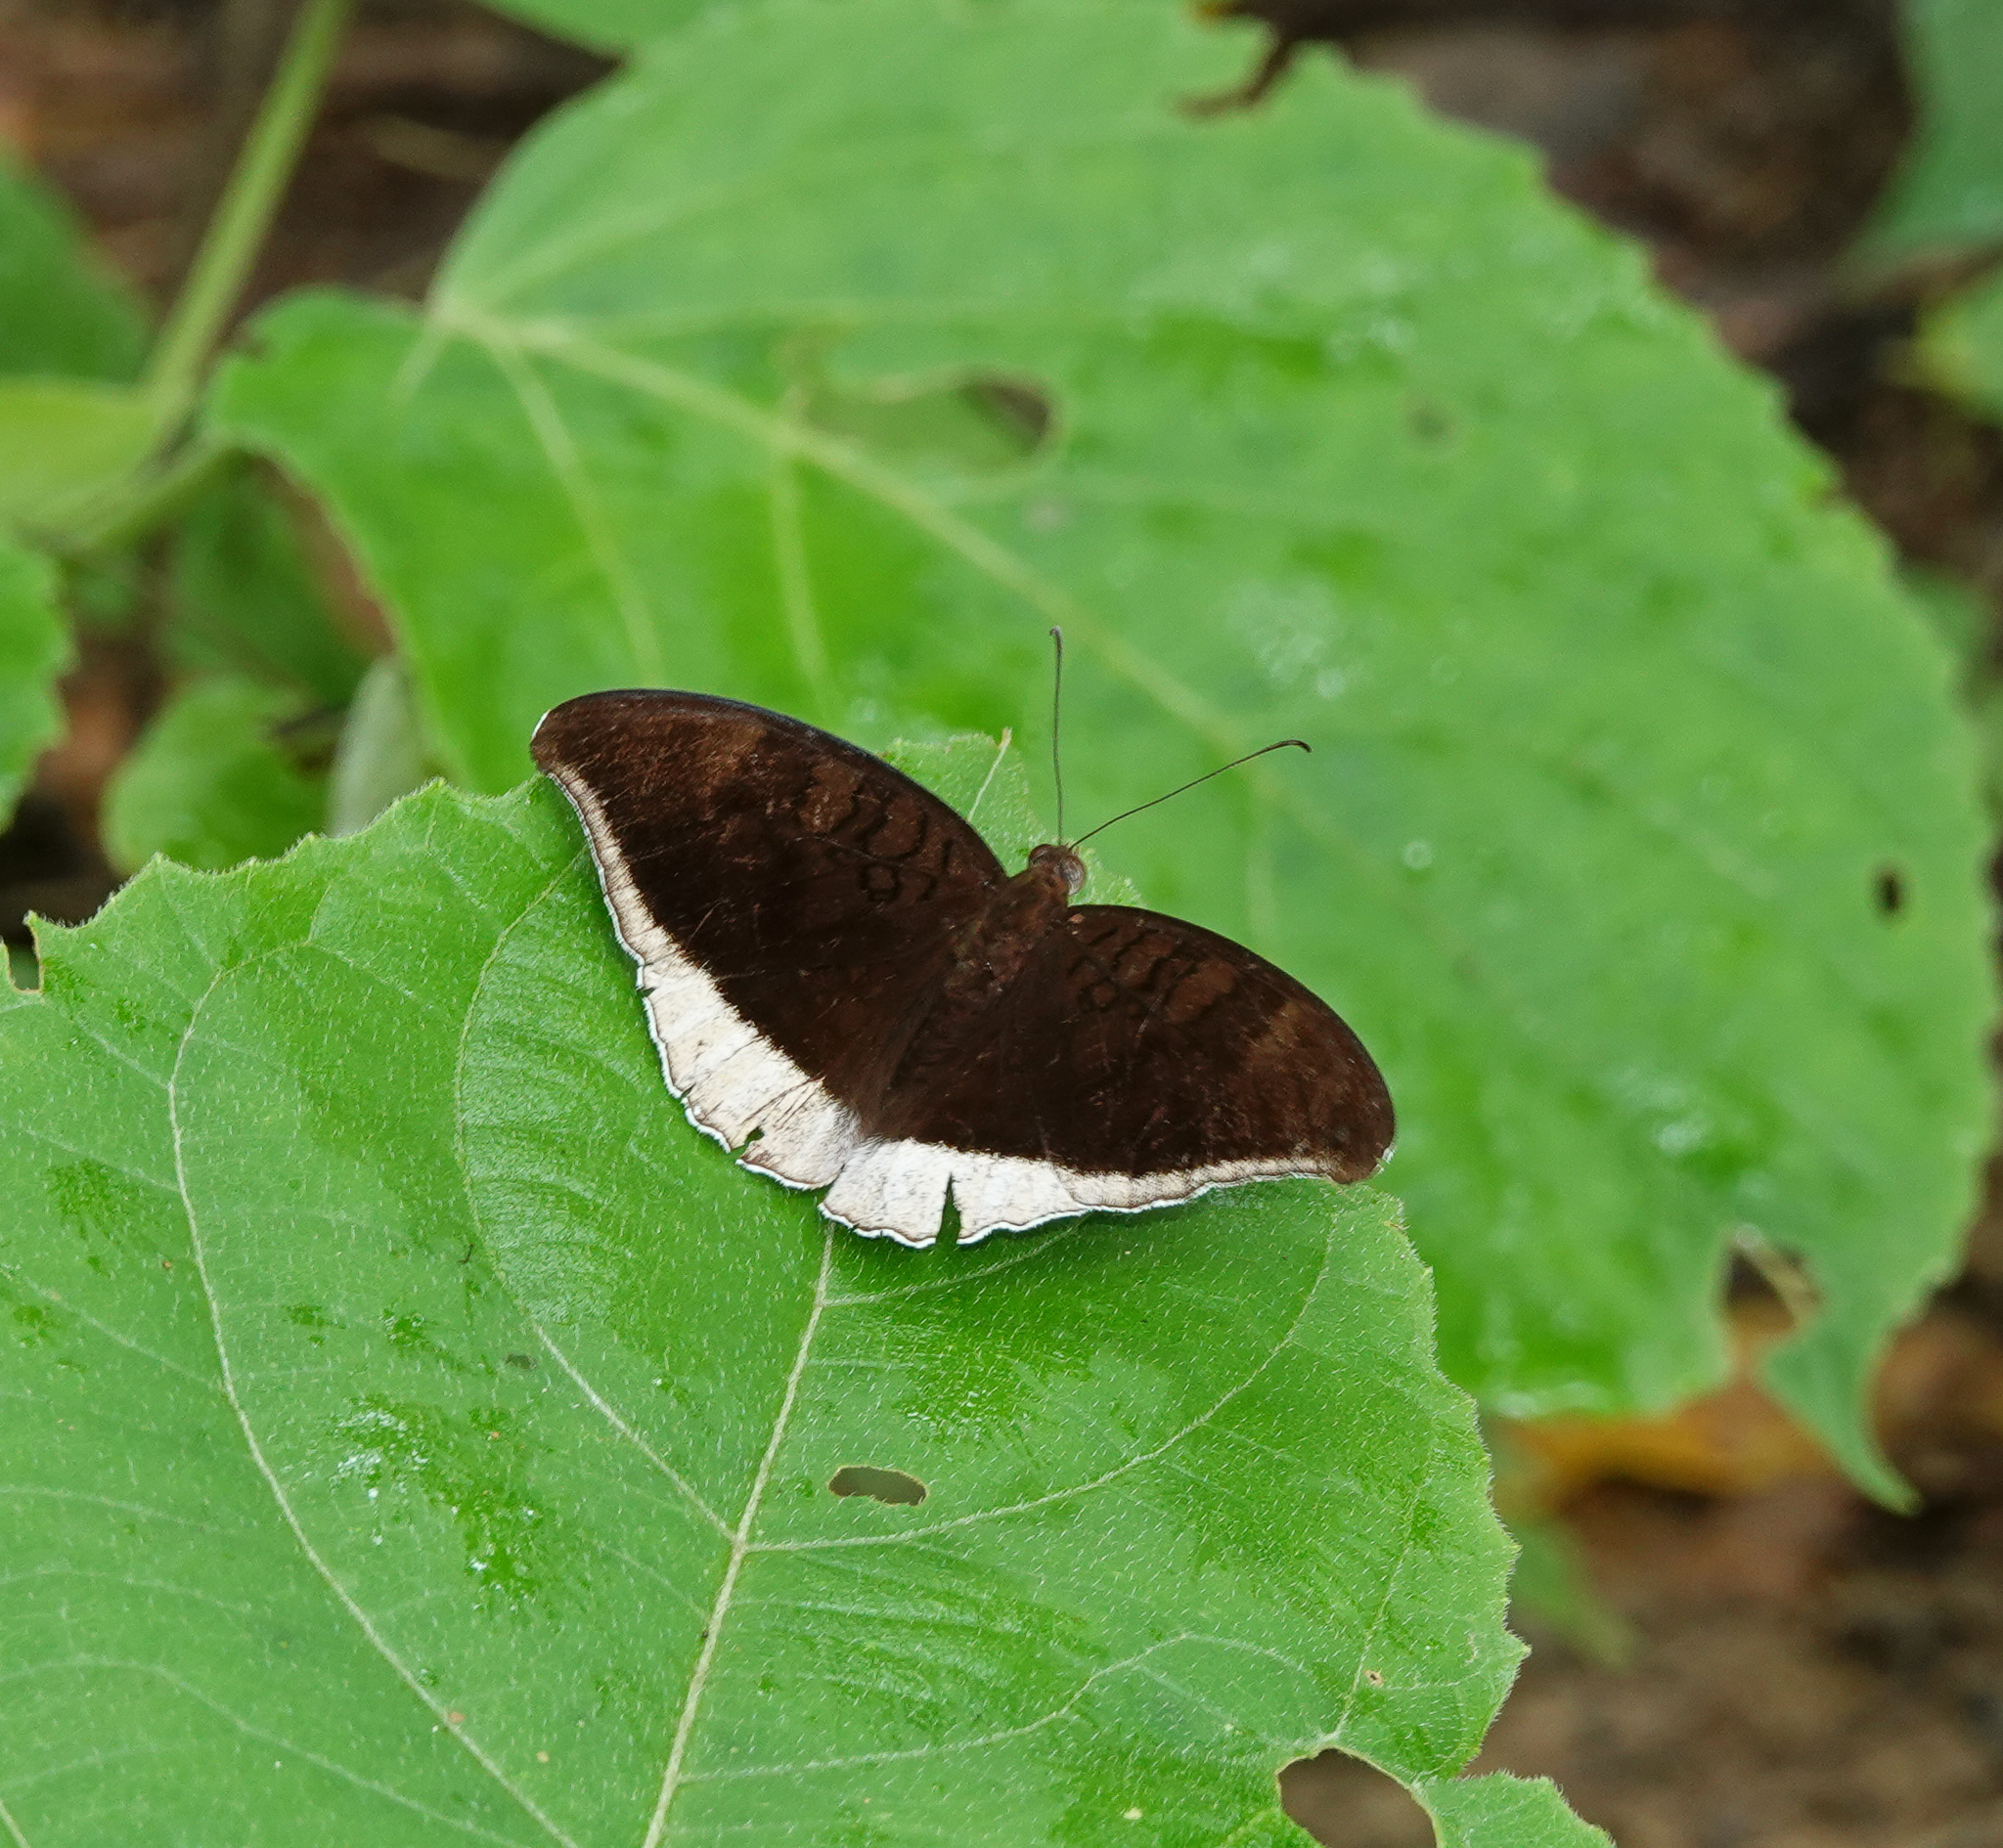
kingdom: Animalia
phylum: Arthropoda
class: Insecta
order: Lepidoptera
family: Nymphalidae
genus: Tanaecia
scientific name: Tanaecia lepidea
